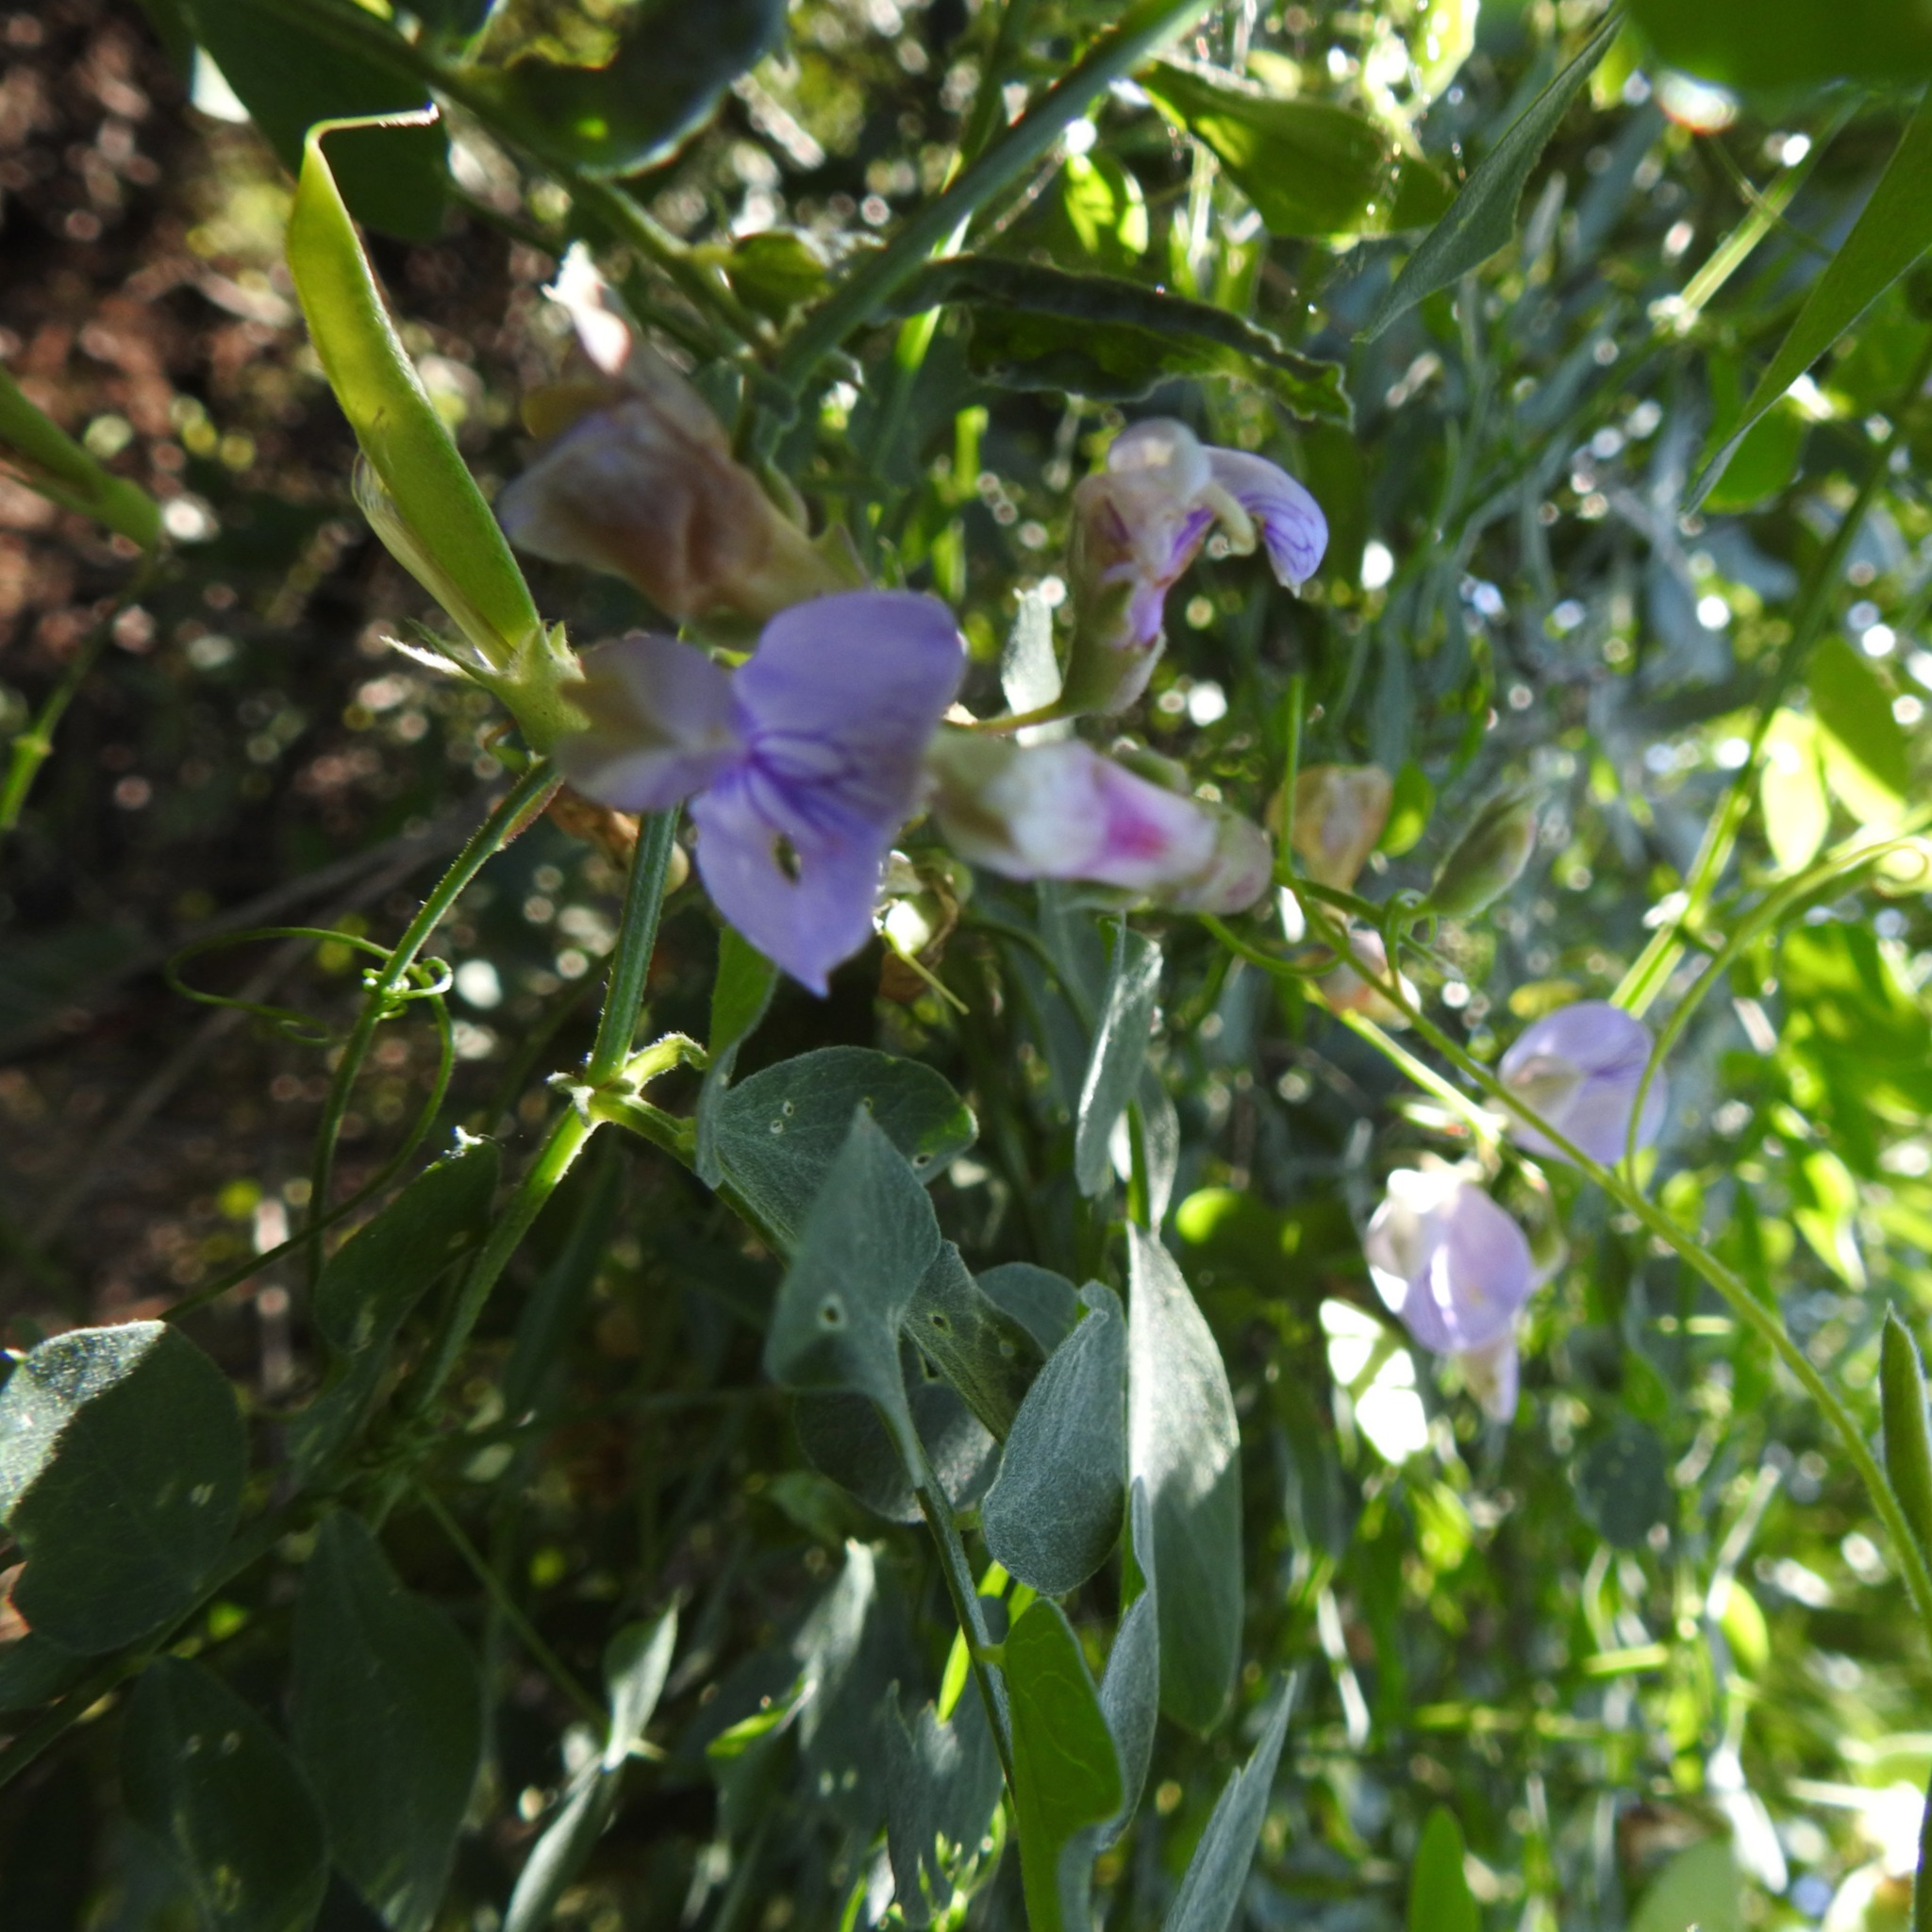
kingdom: Plantae
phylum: Tracheophyta
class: Magnoliopsida
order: Fabales
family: Fabaceae
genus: Lathyrus
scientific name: Lathyrus vestitus
